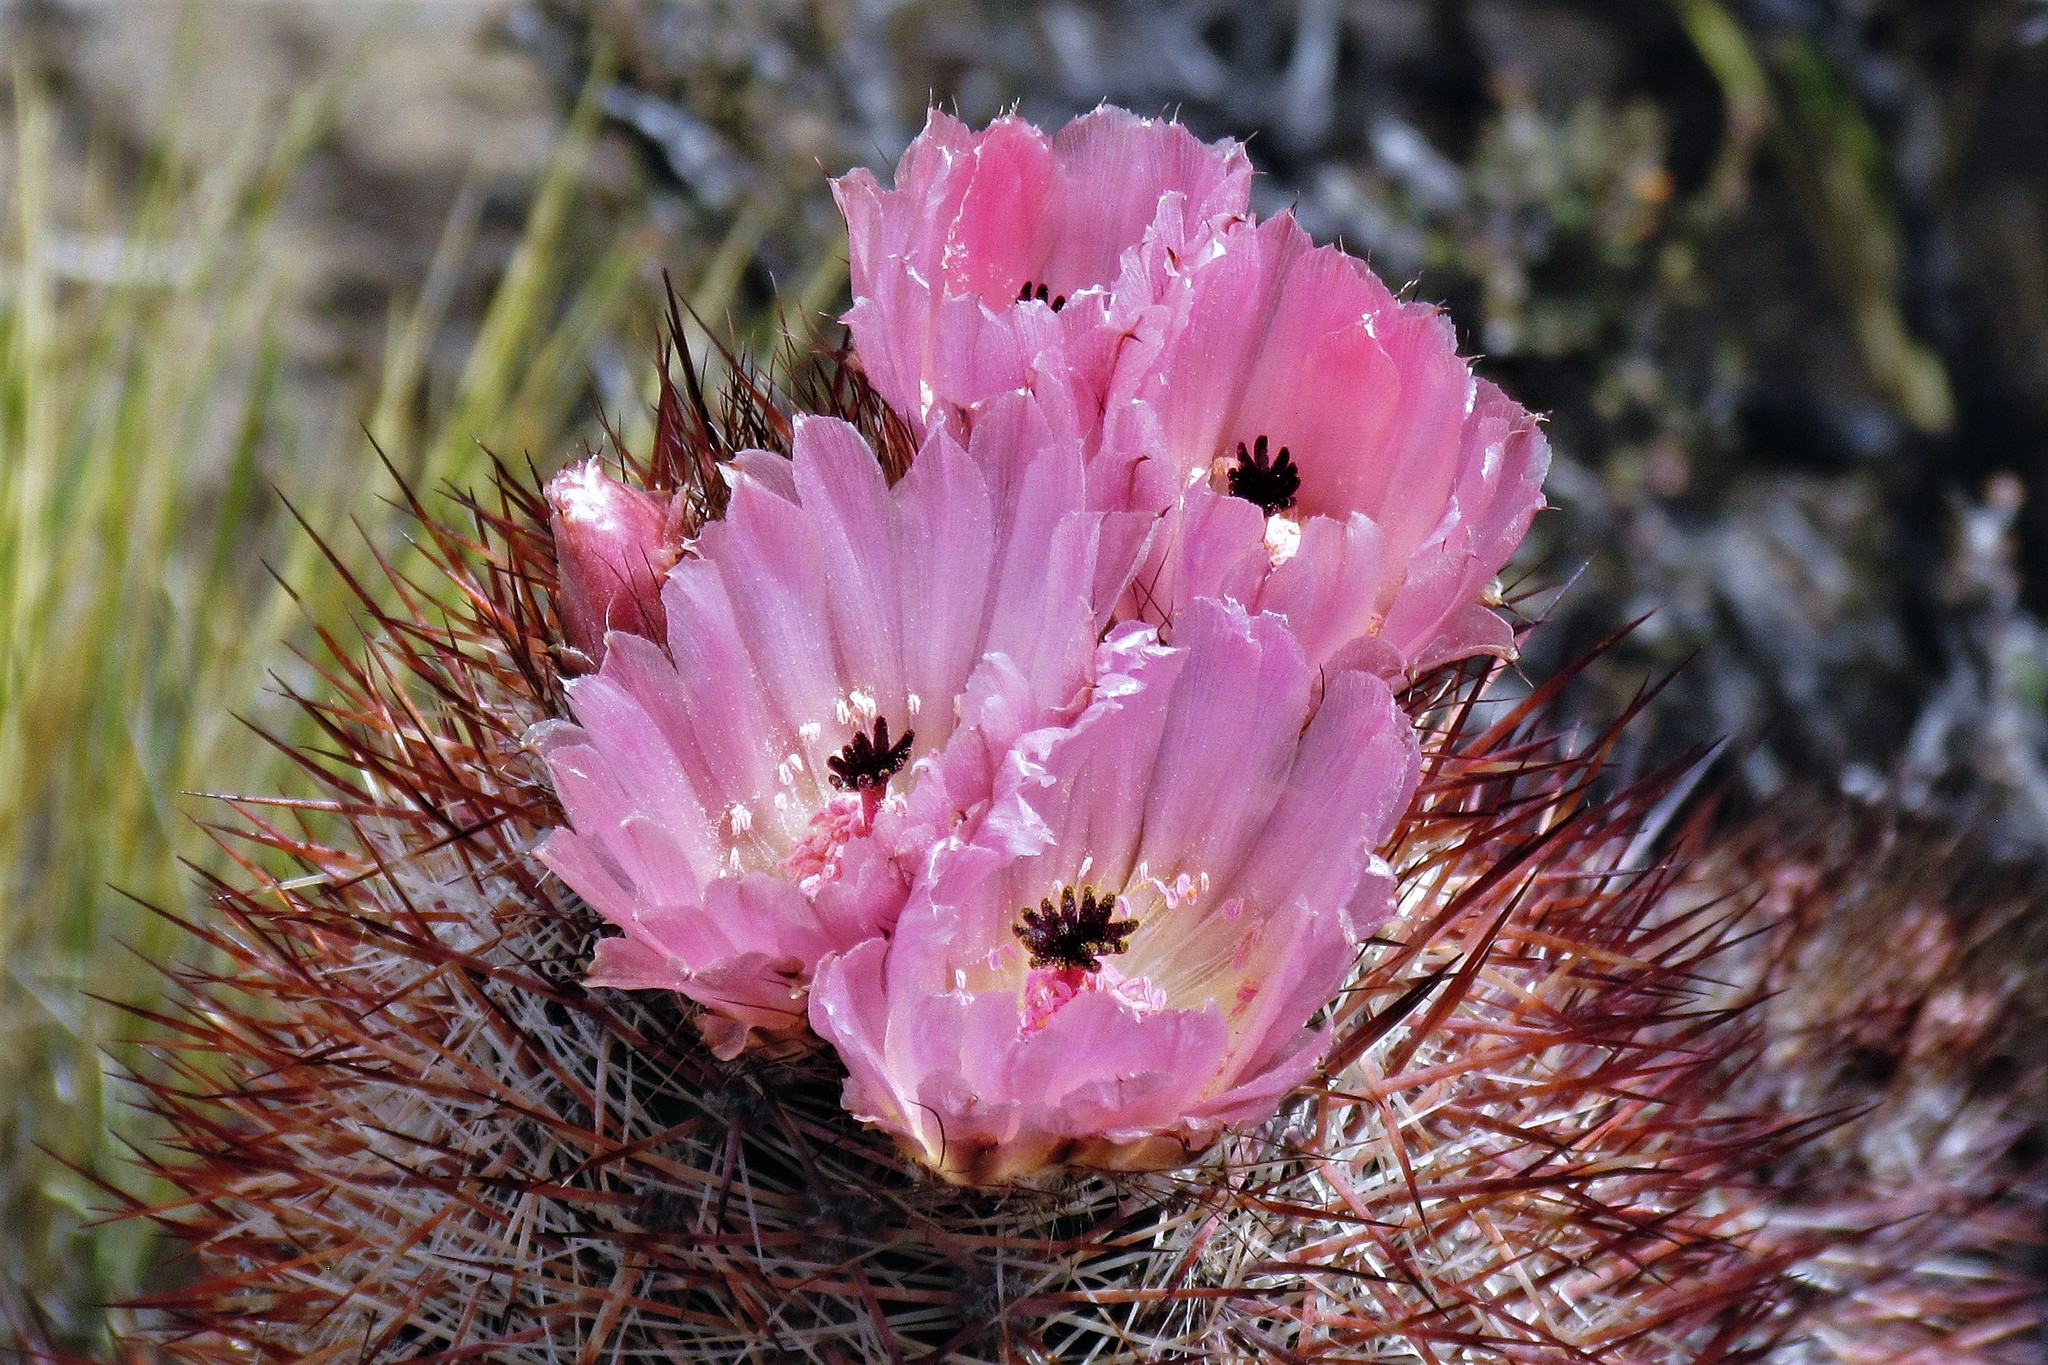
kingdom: Plantae
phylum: Tracheophyta
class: Magnoliopsida
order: Caryophyllales
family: Cactaceae
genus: Austrocactus
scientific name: Austrocactus bertinii
